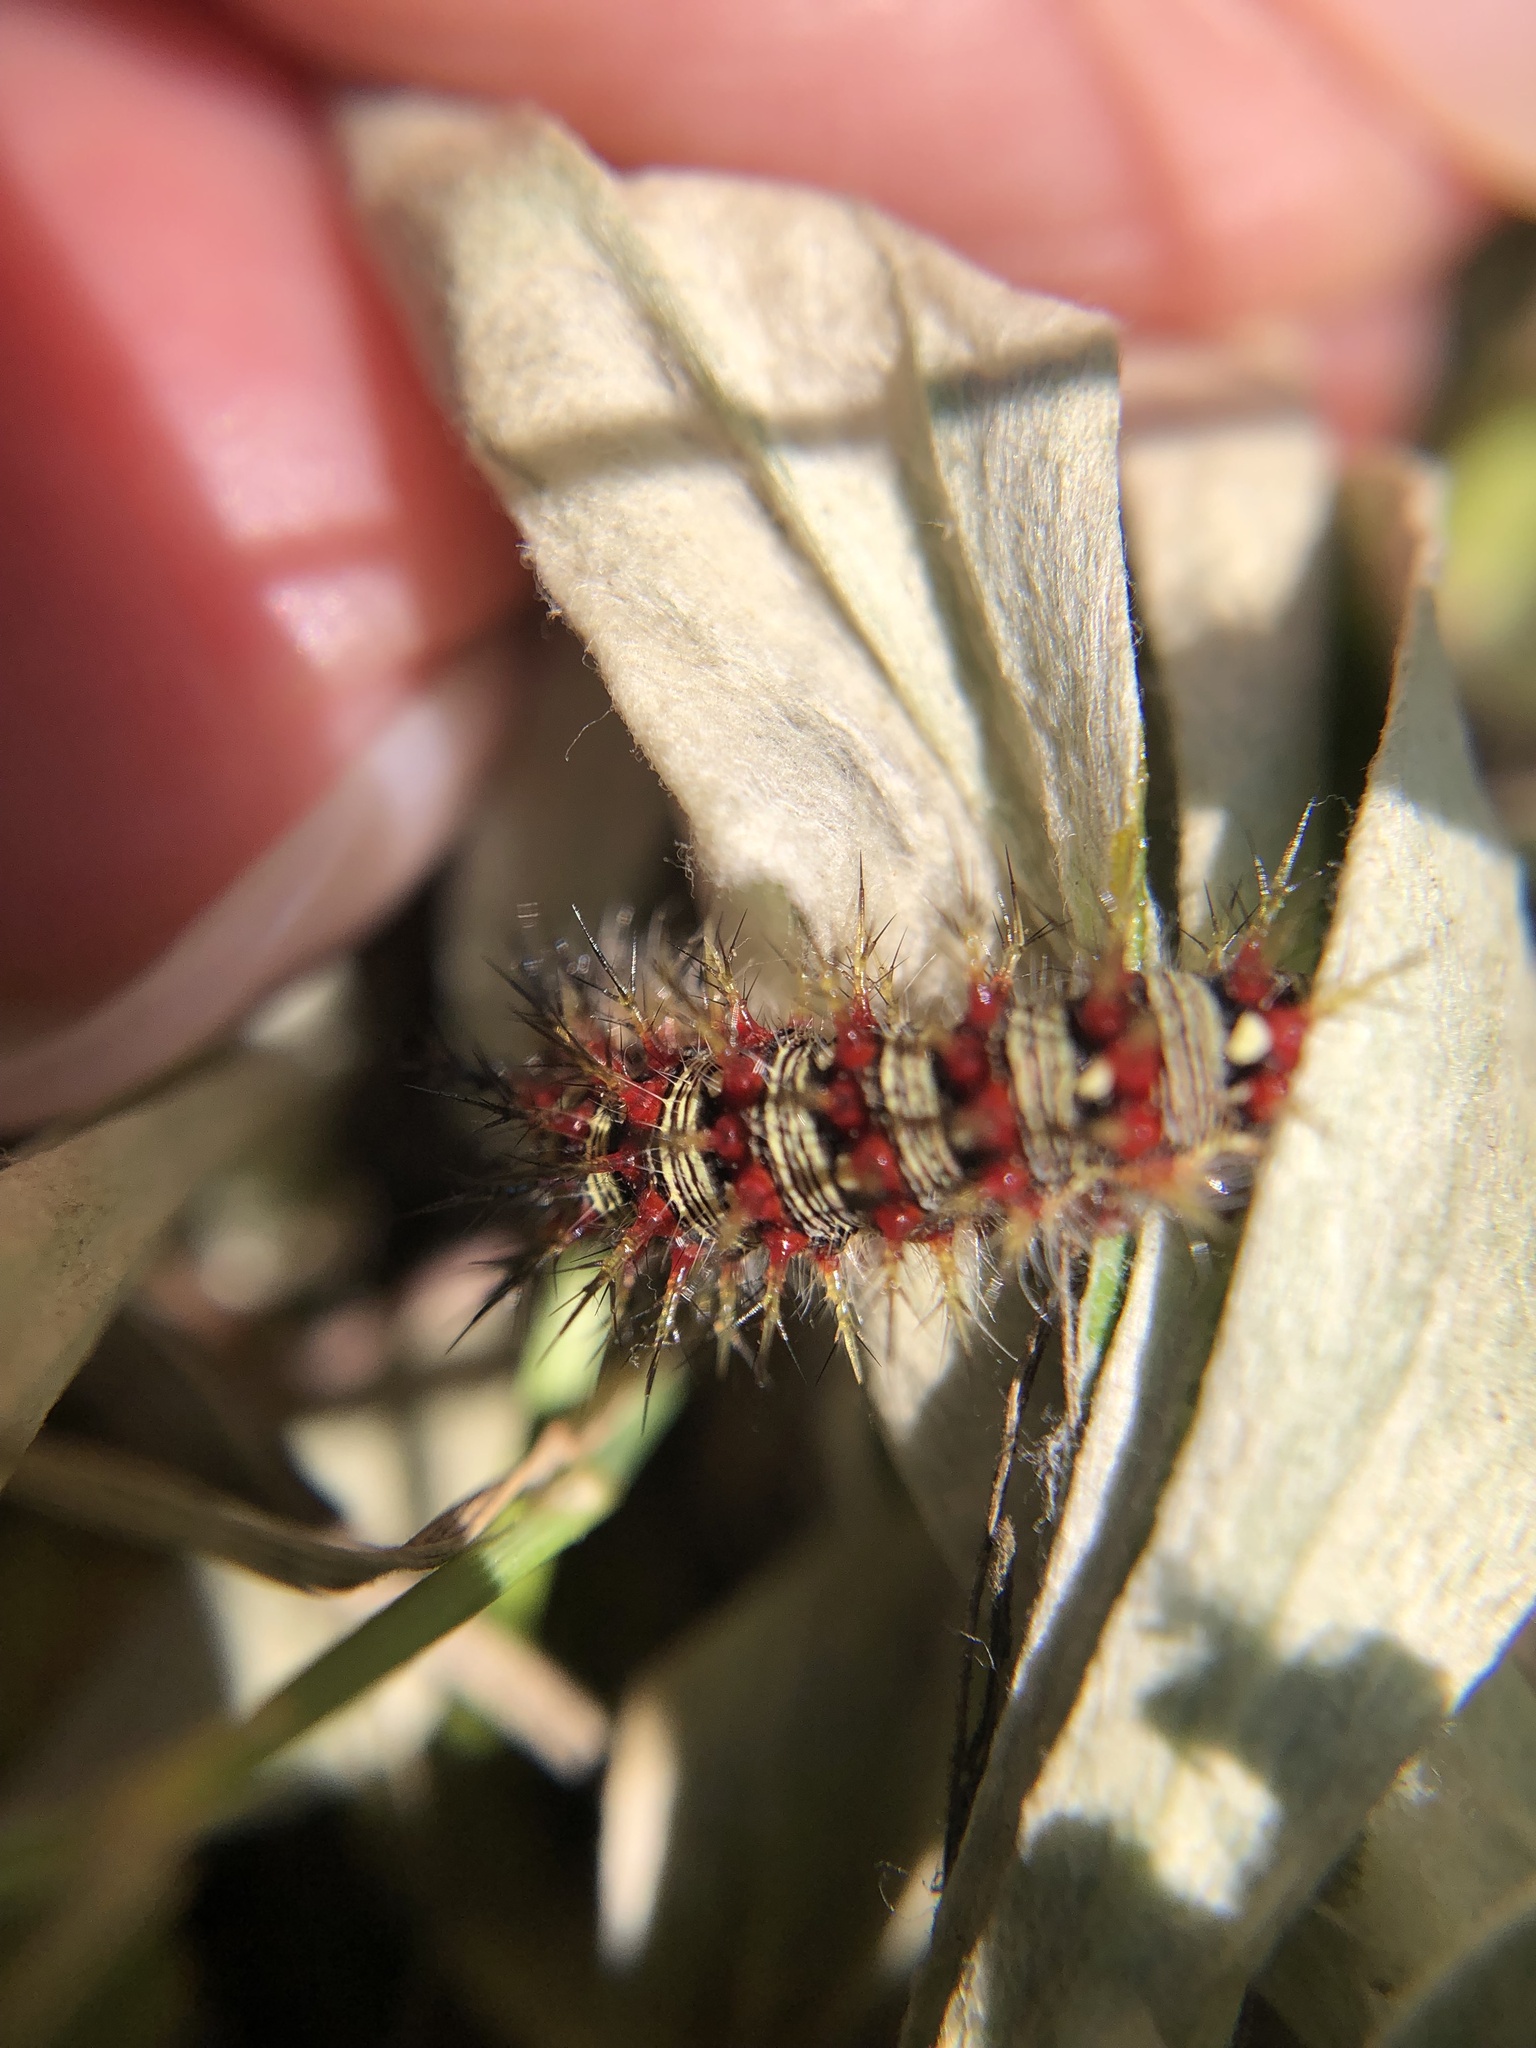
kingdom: Animalia
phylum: Arthropoda
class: Insecta
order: Lepidoptera
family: Nymphalidae
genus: Vanessa
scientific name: Vanessa virginiensis
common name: American lady
